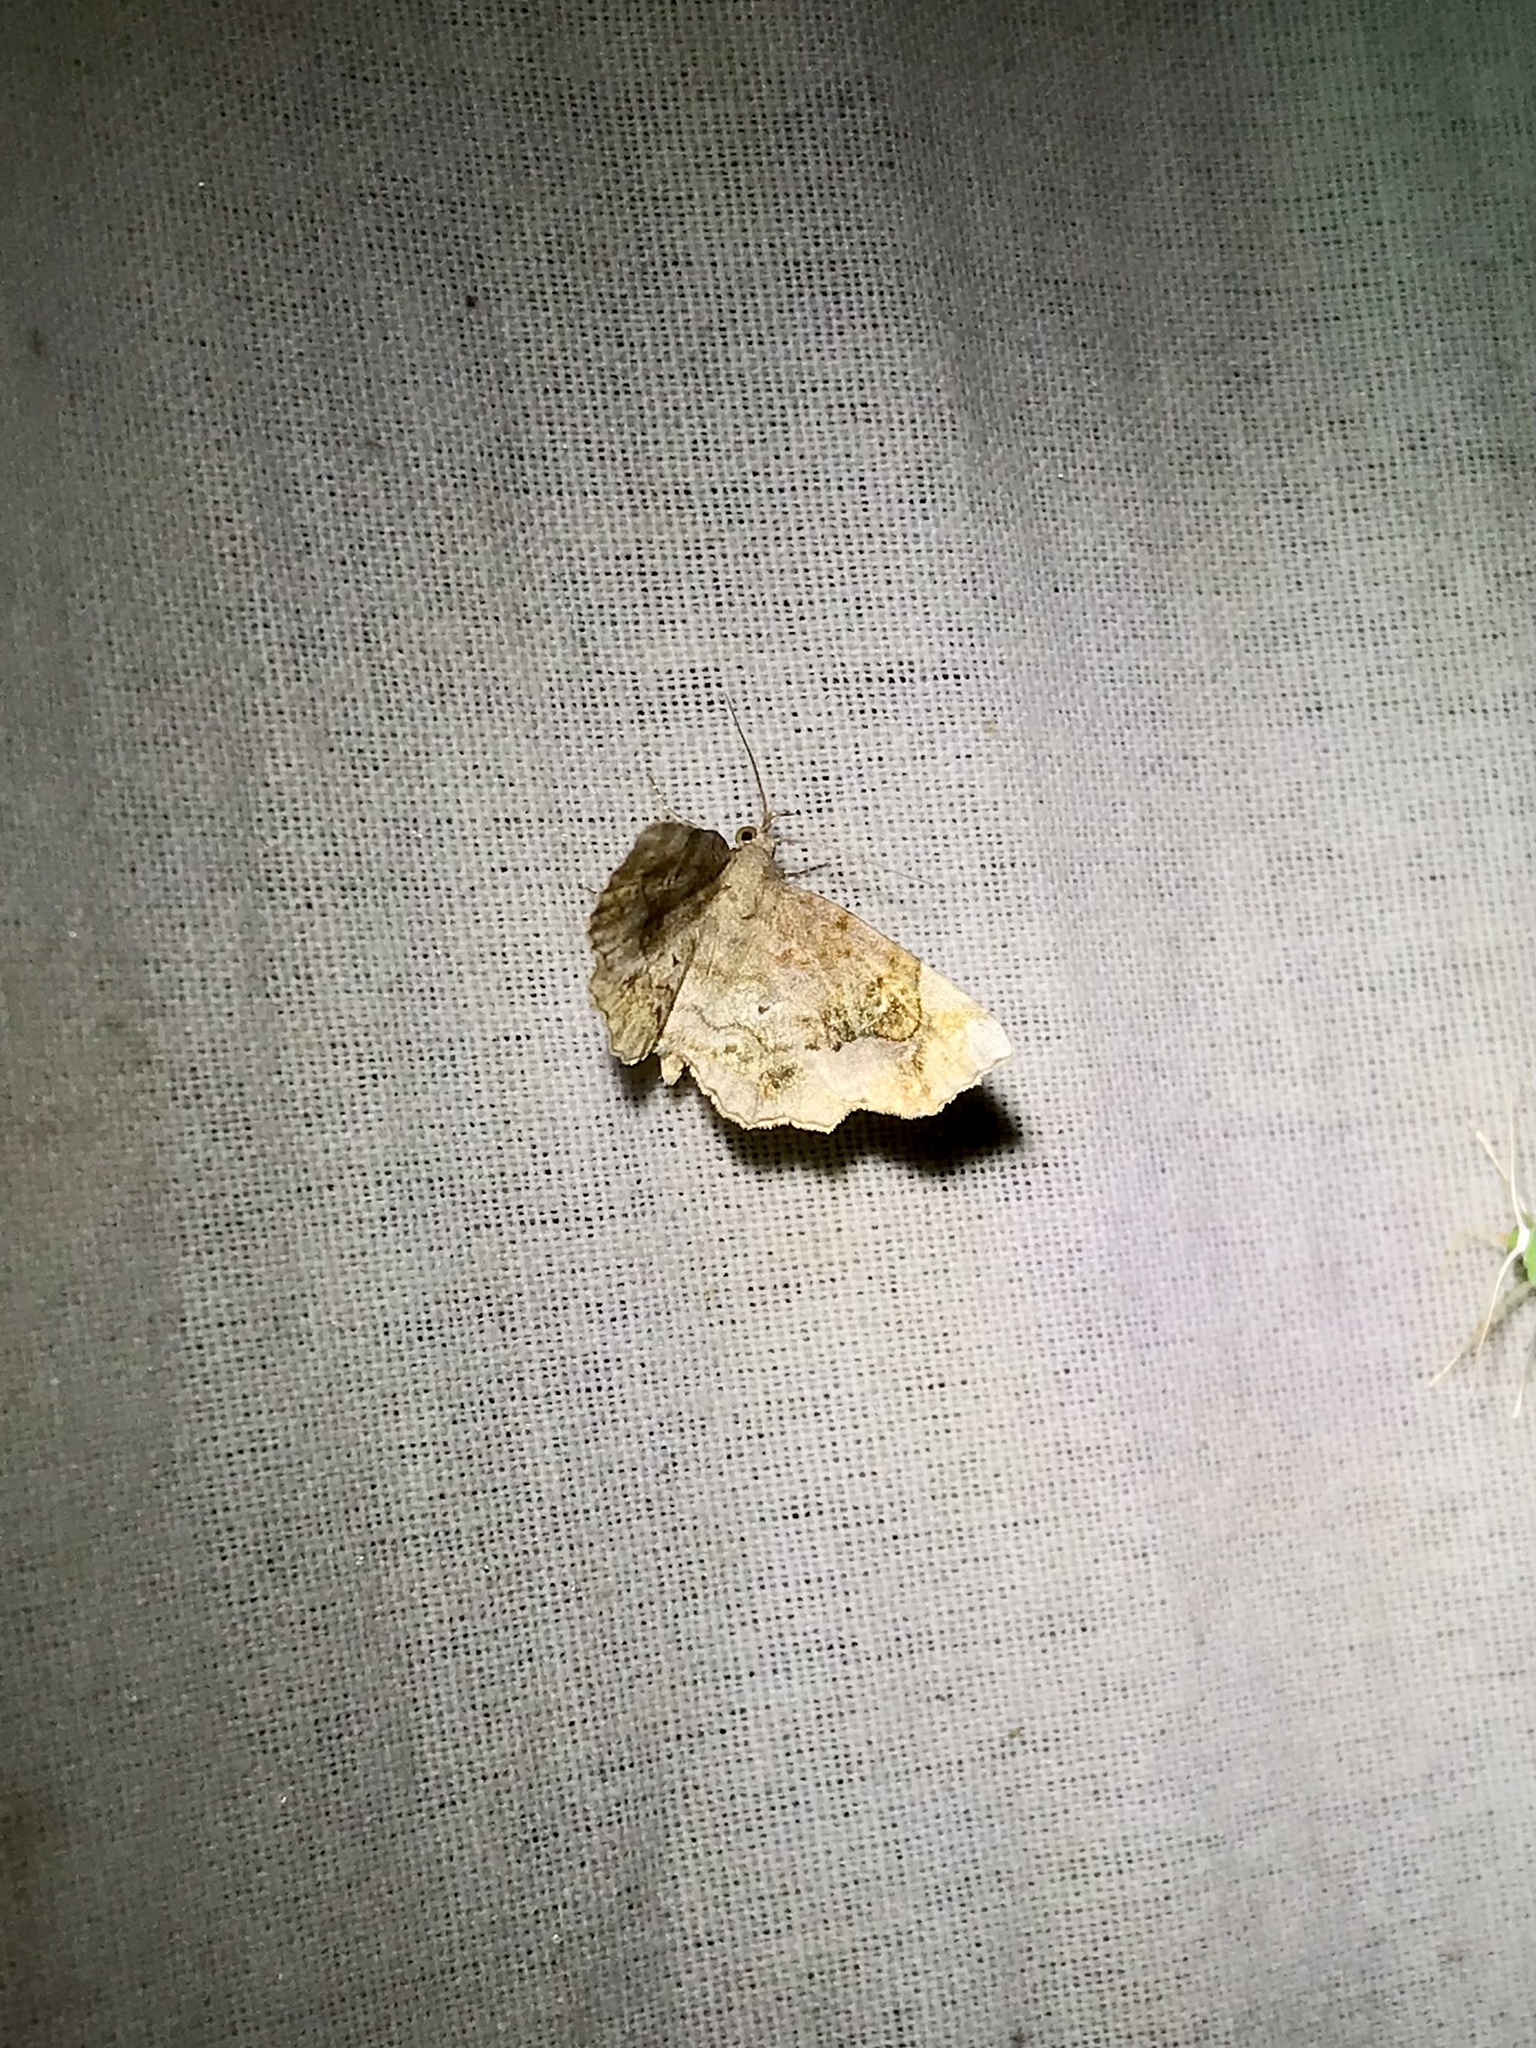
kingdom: Animalia
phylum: Arthropoda
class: Insecta
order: Lepidoptera
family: Erebidae
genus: Pangrapta
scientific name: Pangrapta decoralis
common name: Decorated owlet
